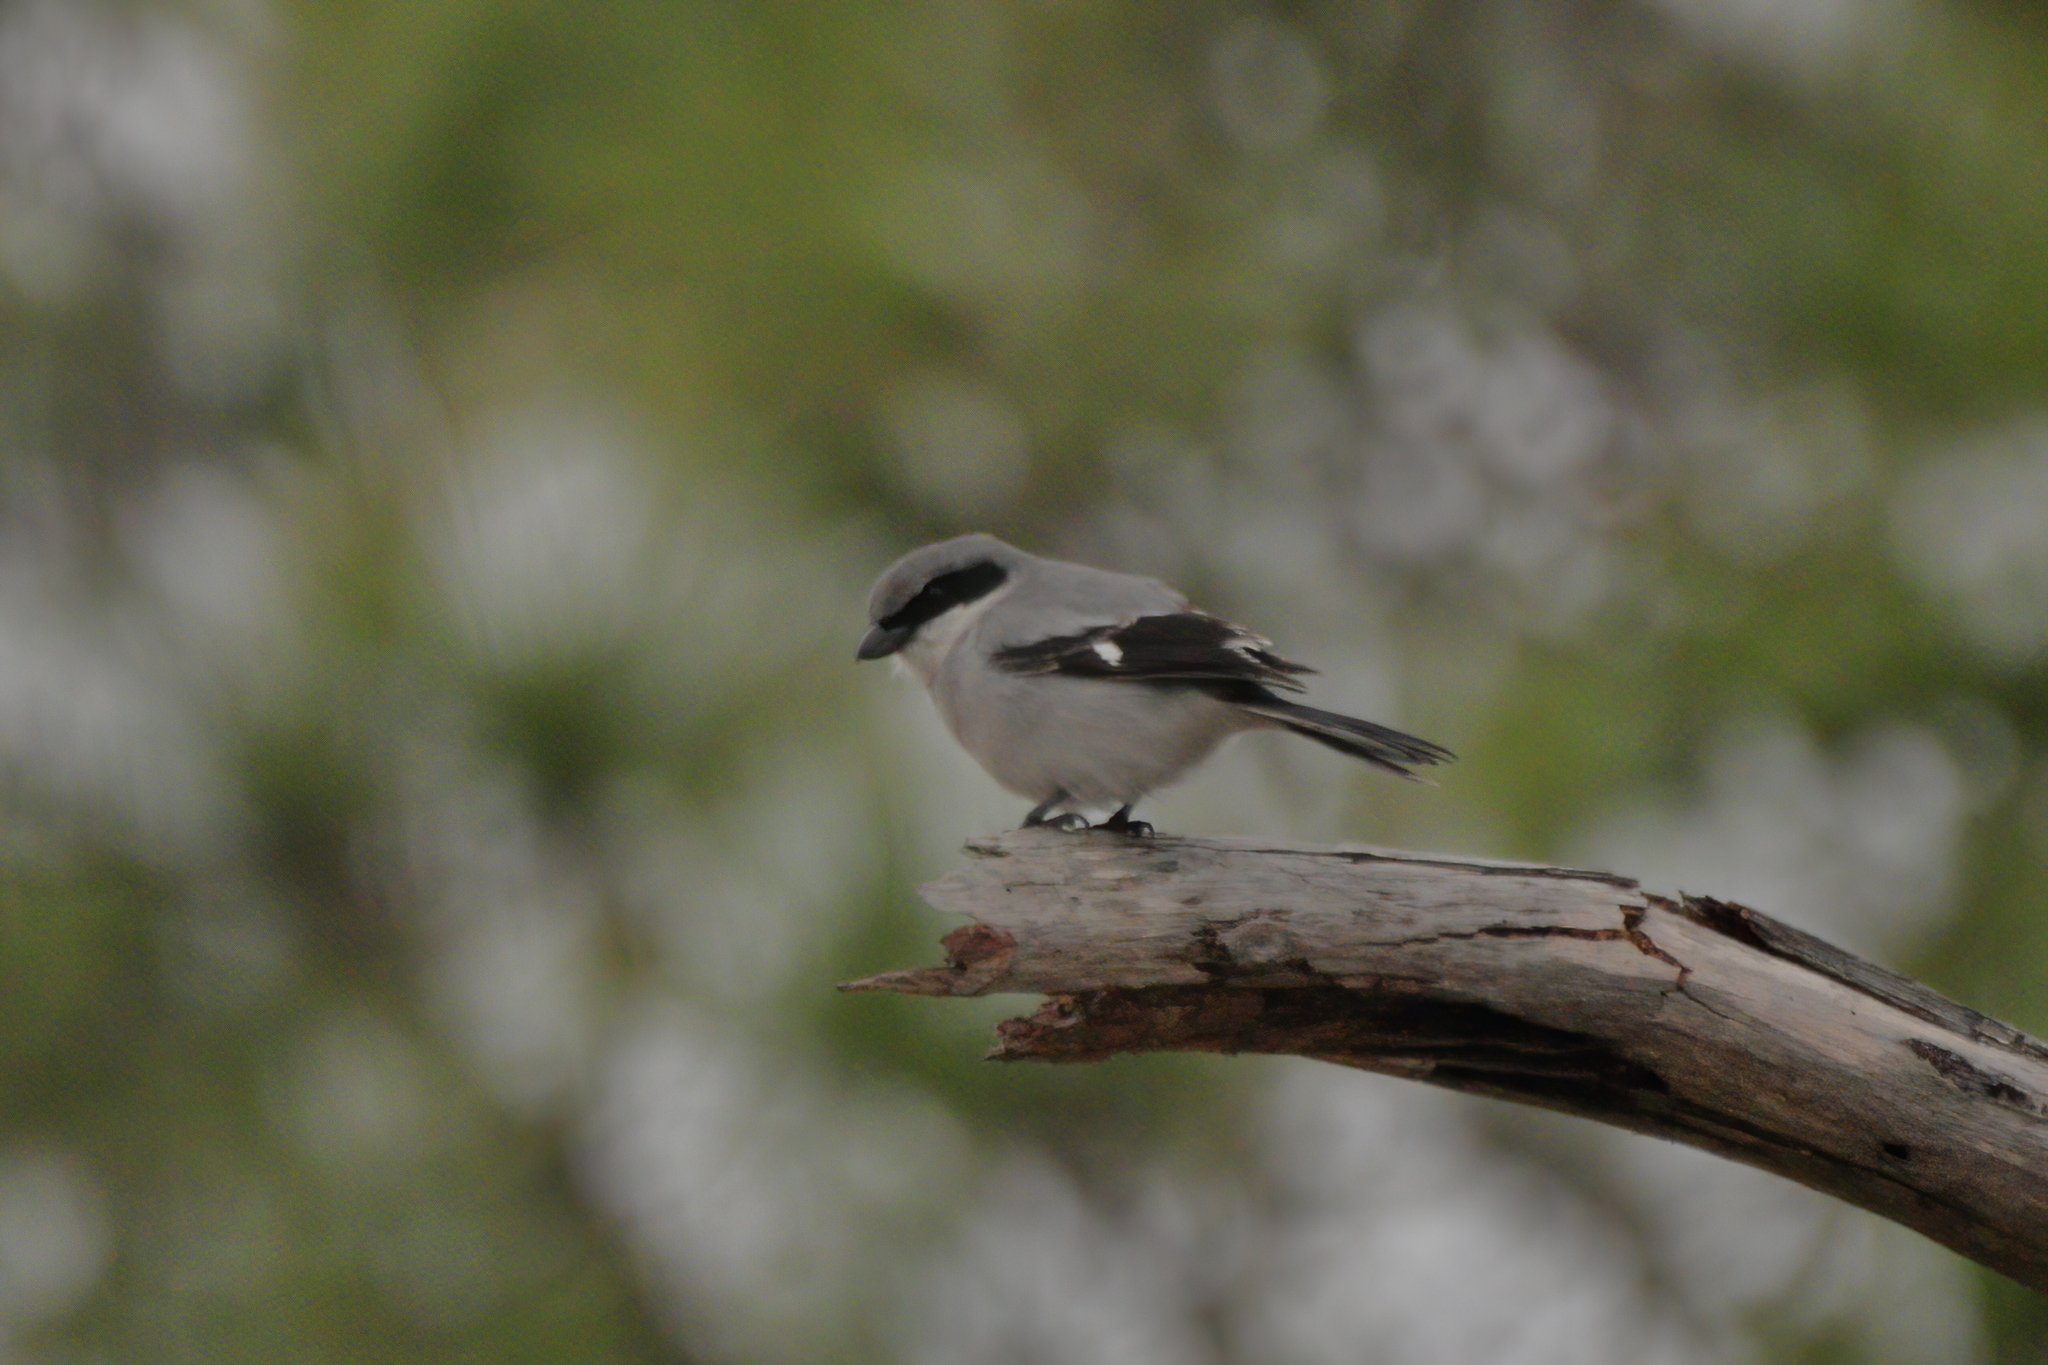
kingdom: Animalia
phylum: Chordata
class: Aves
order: Passeriformes
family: Laniidae
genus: Lanius
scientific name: Lanius ludovicianus
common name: Loggerhead shrike
